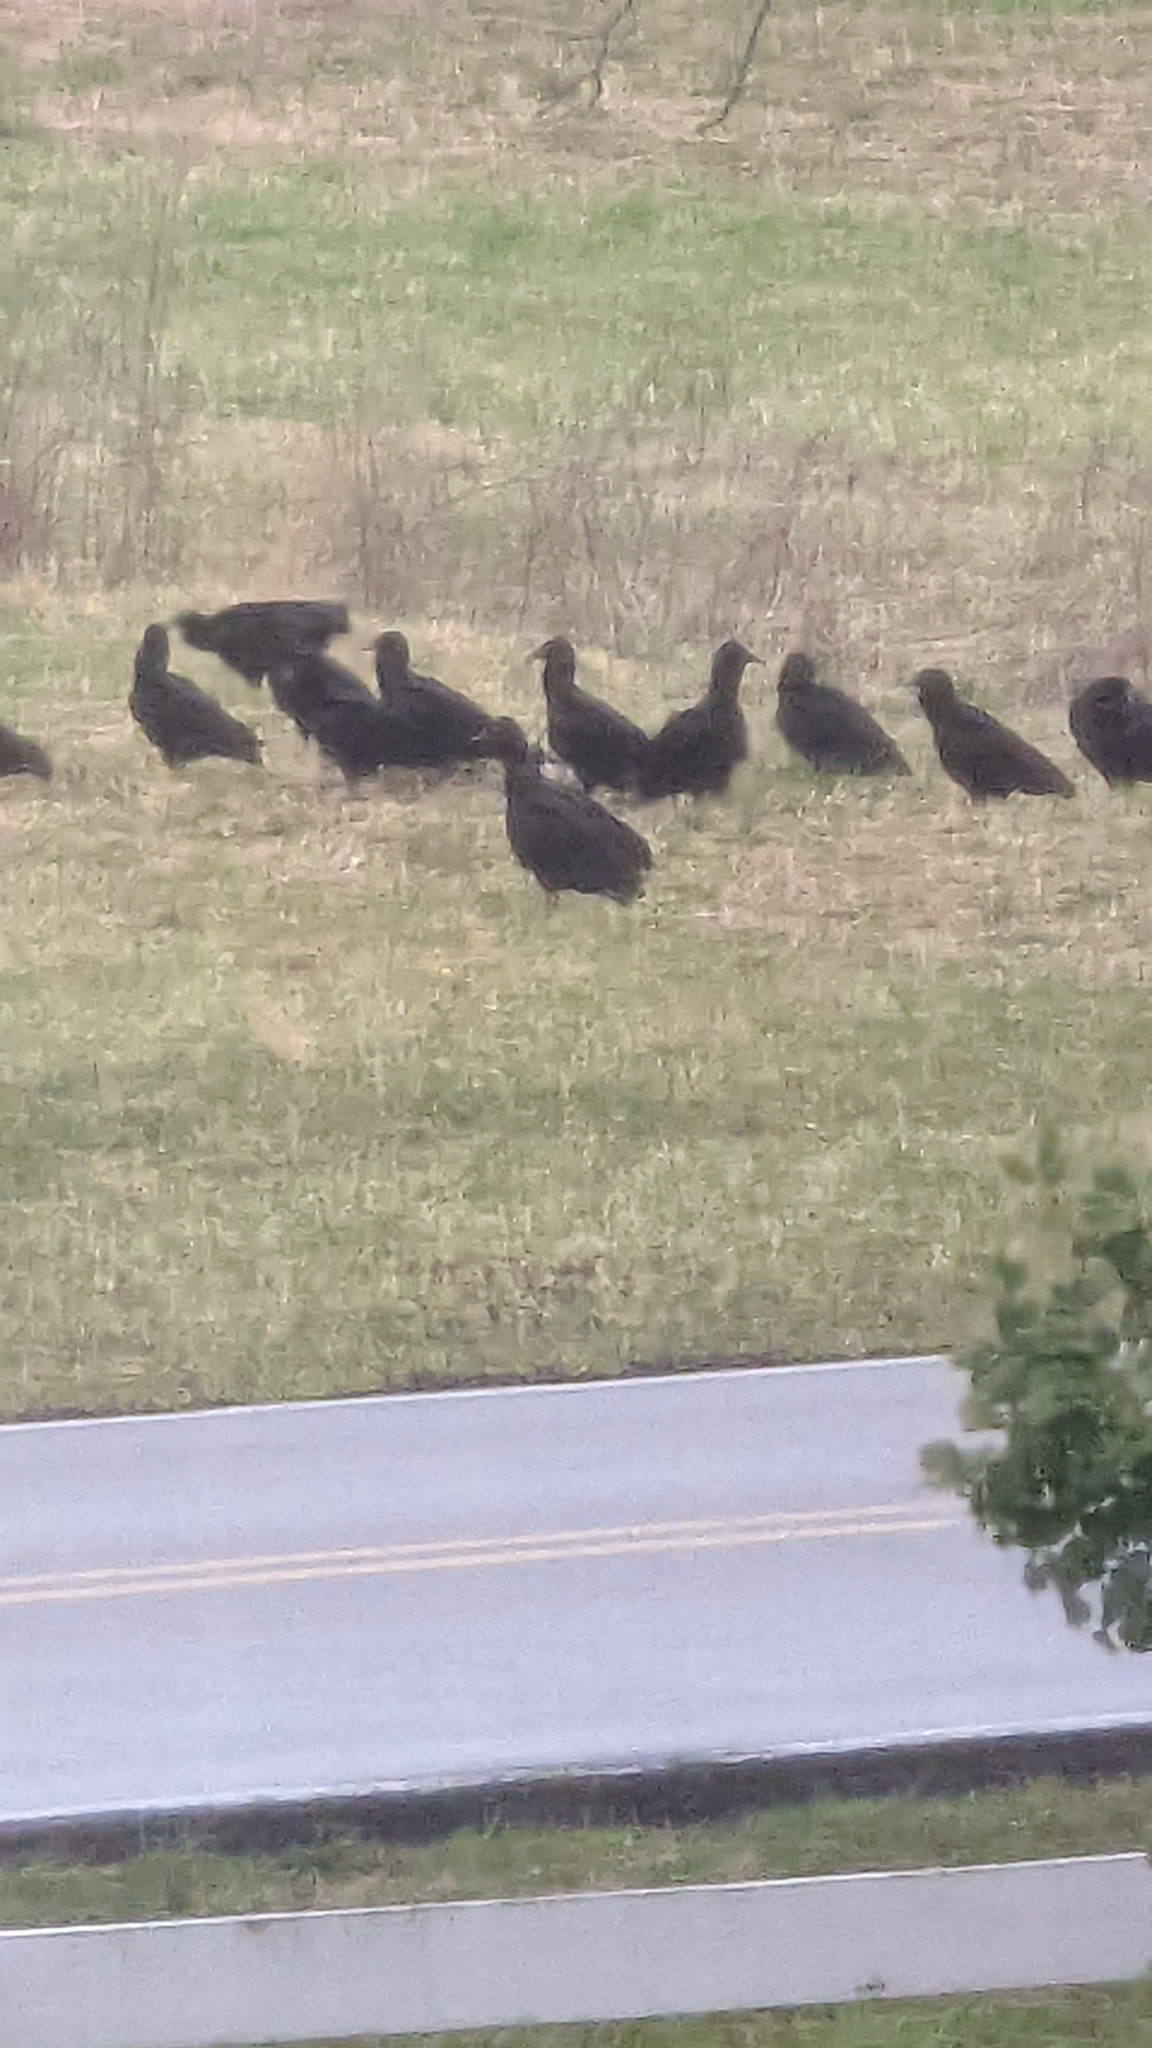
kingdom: Animalia
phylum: Chordata
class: Aves
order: Accipitriformes
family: Cathartidae
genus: Coragyps
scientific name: Coragyps atratus
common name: Black vulture
